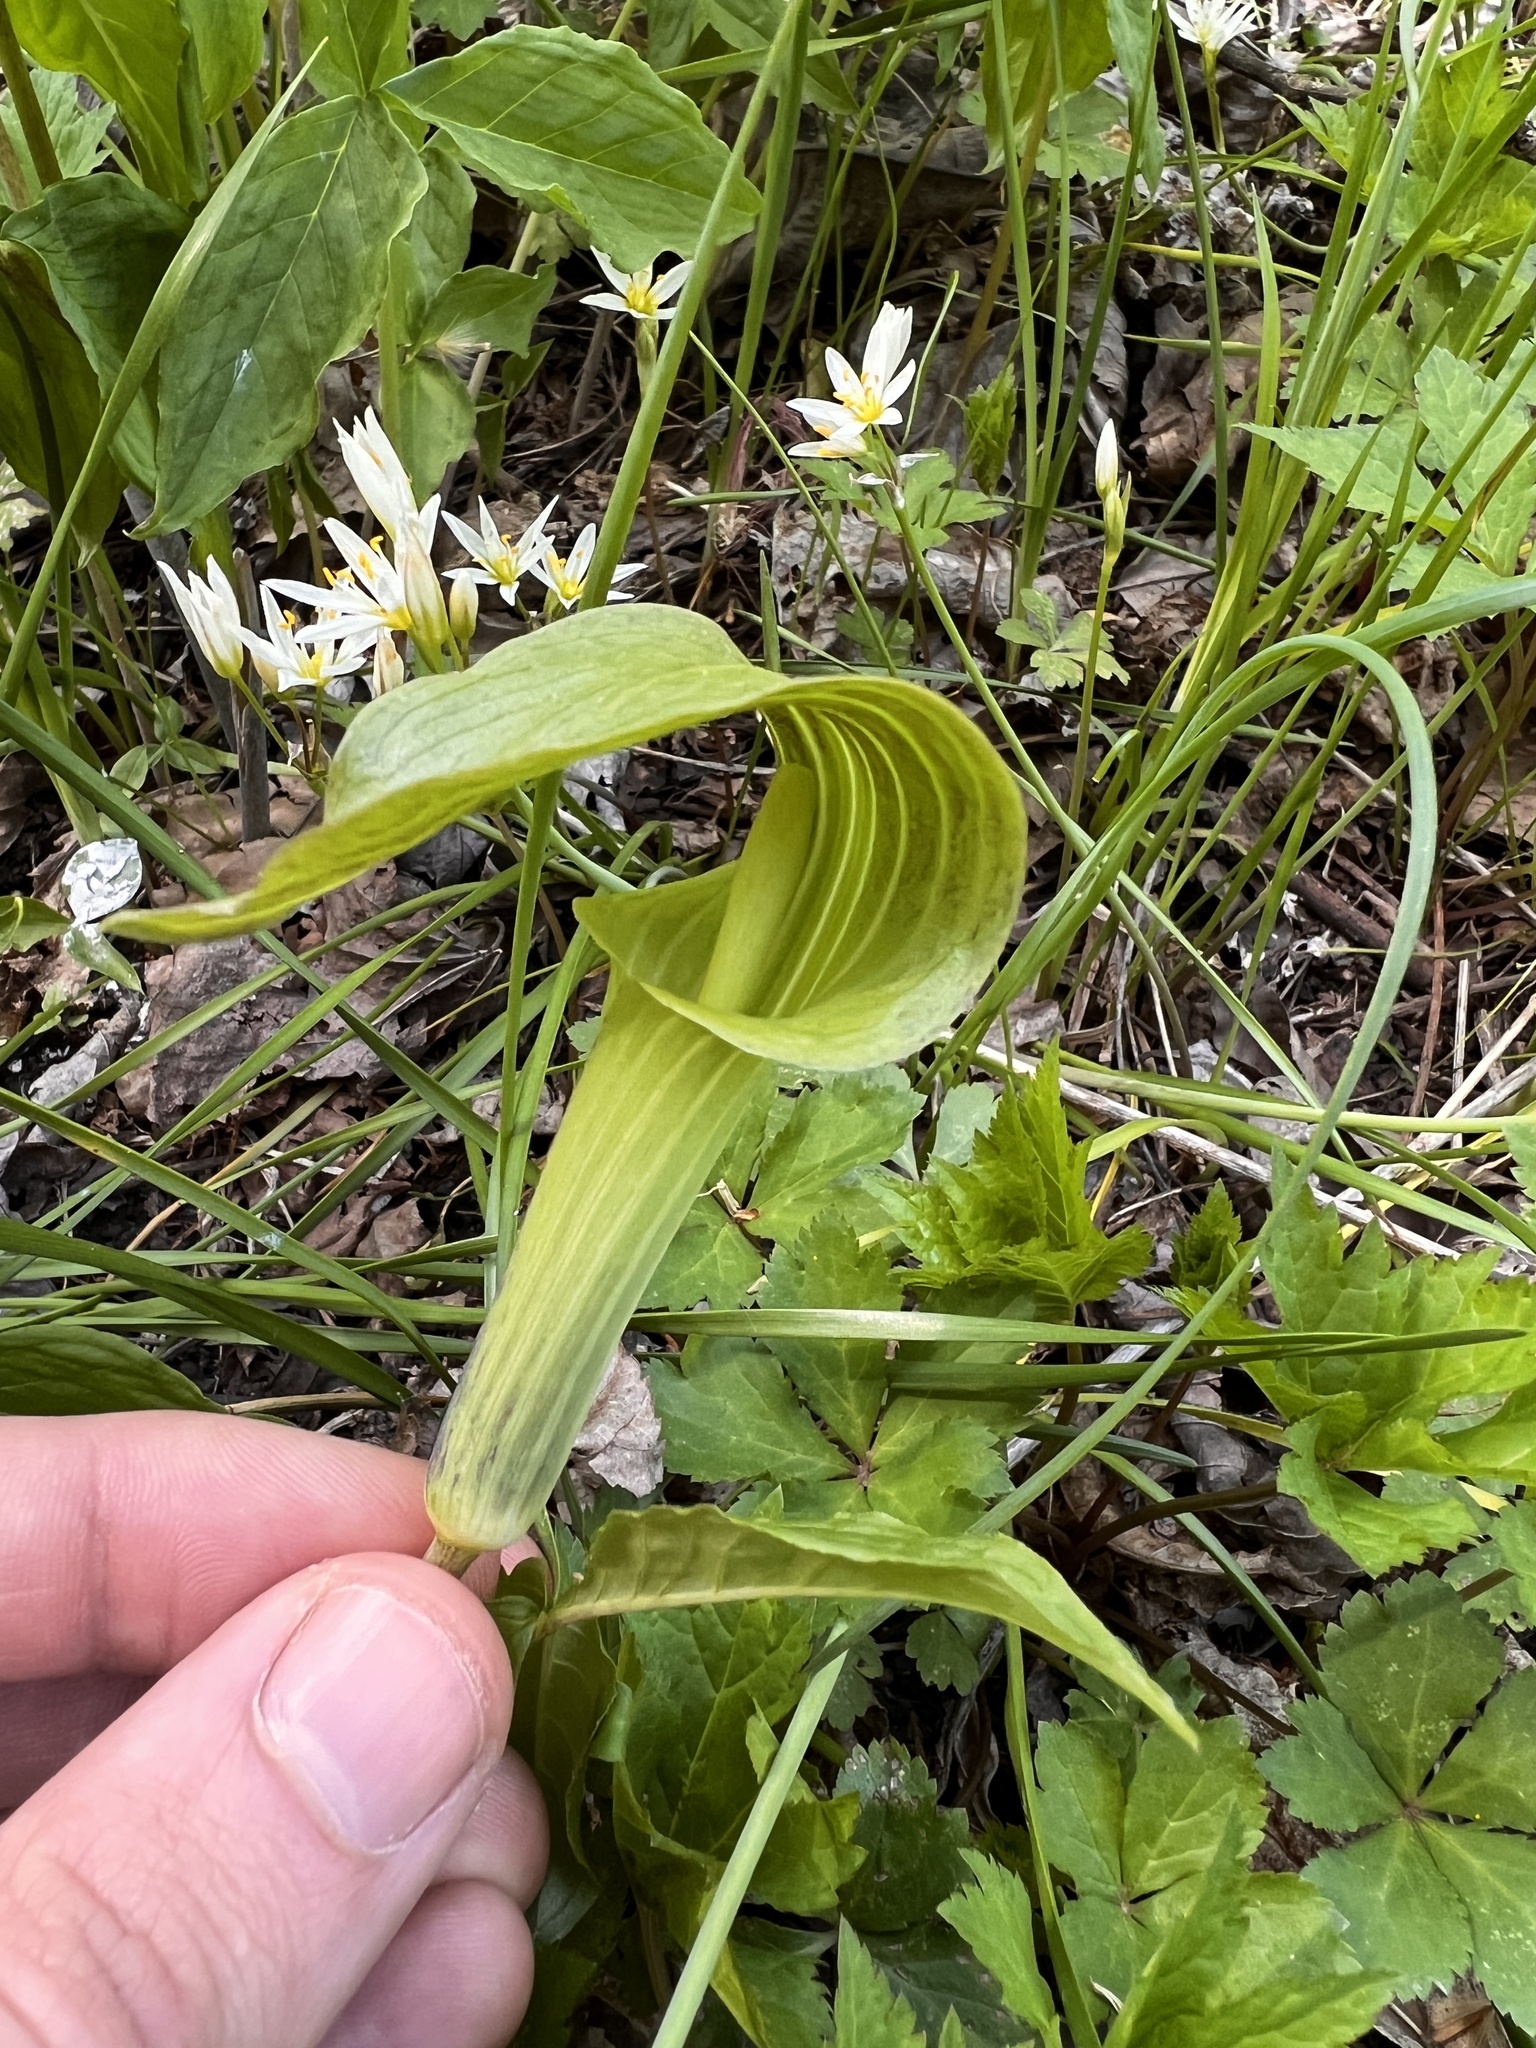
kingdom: Plantae
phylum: Tracheophyta
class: Liliopsida
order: Alismatales
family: Araceae
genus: Arisaema
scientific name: Arisaema triphyllum
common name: Jack-in-the-pulpit
